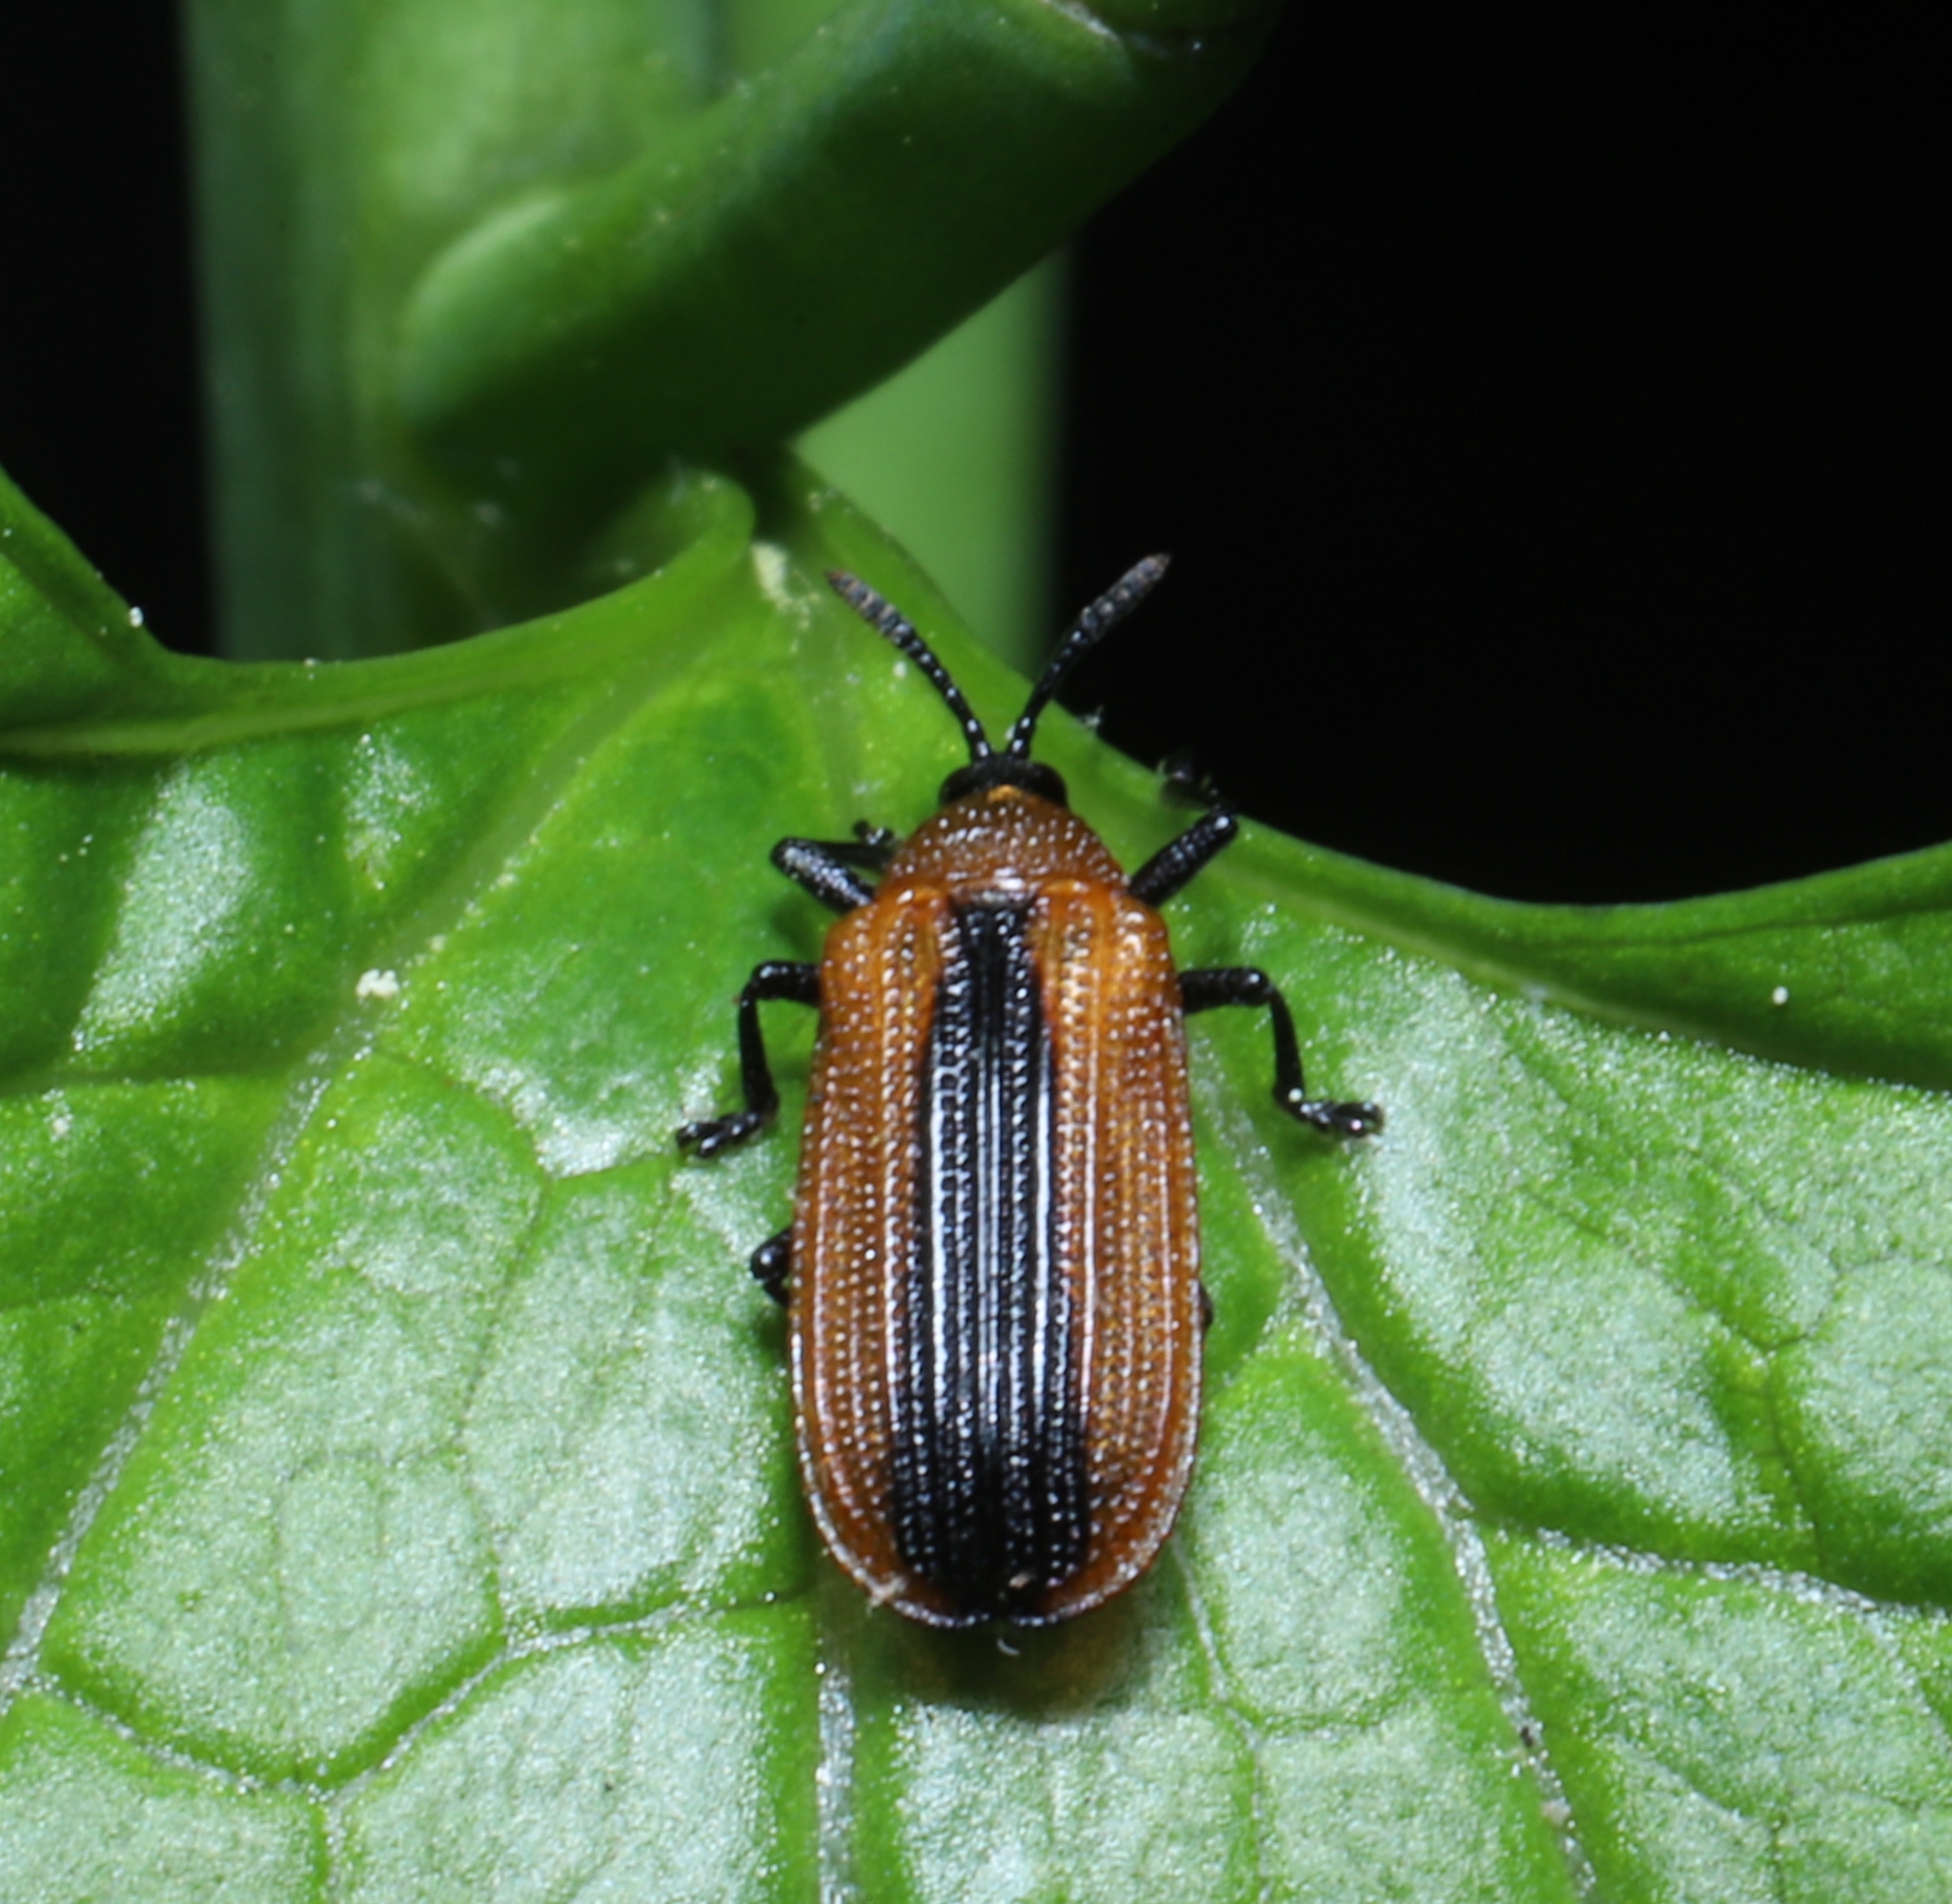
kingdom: Animalia
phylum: Arthropoda
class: Insecta
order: Coleoptera
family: Chrysomelidae
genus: Odontota
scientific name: Odontota dorsalis
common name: Locust leaf-miner beetle
